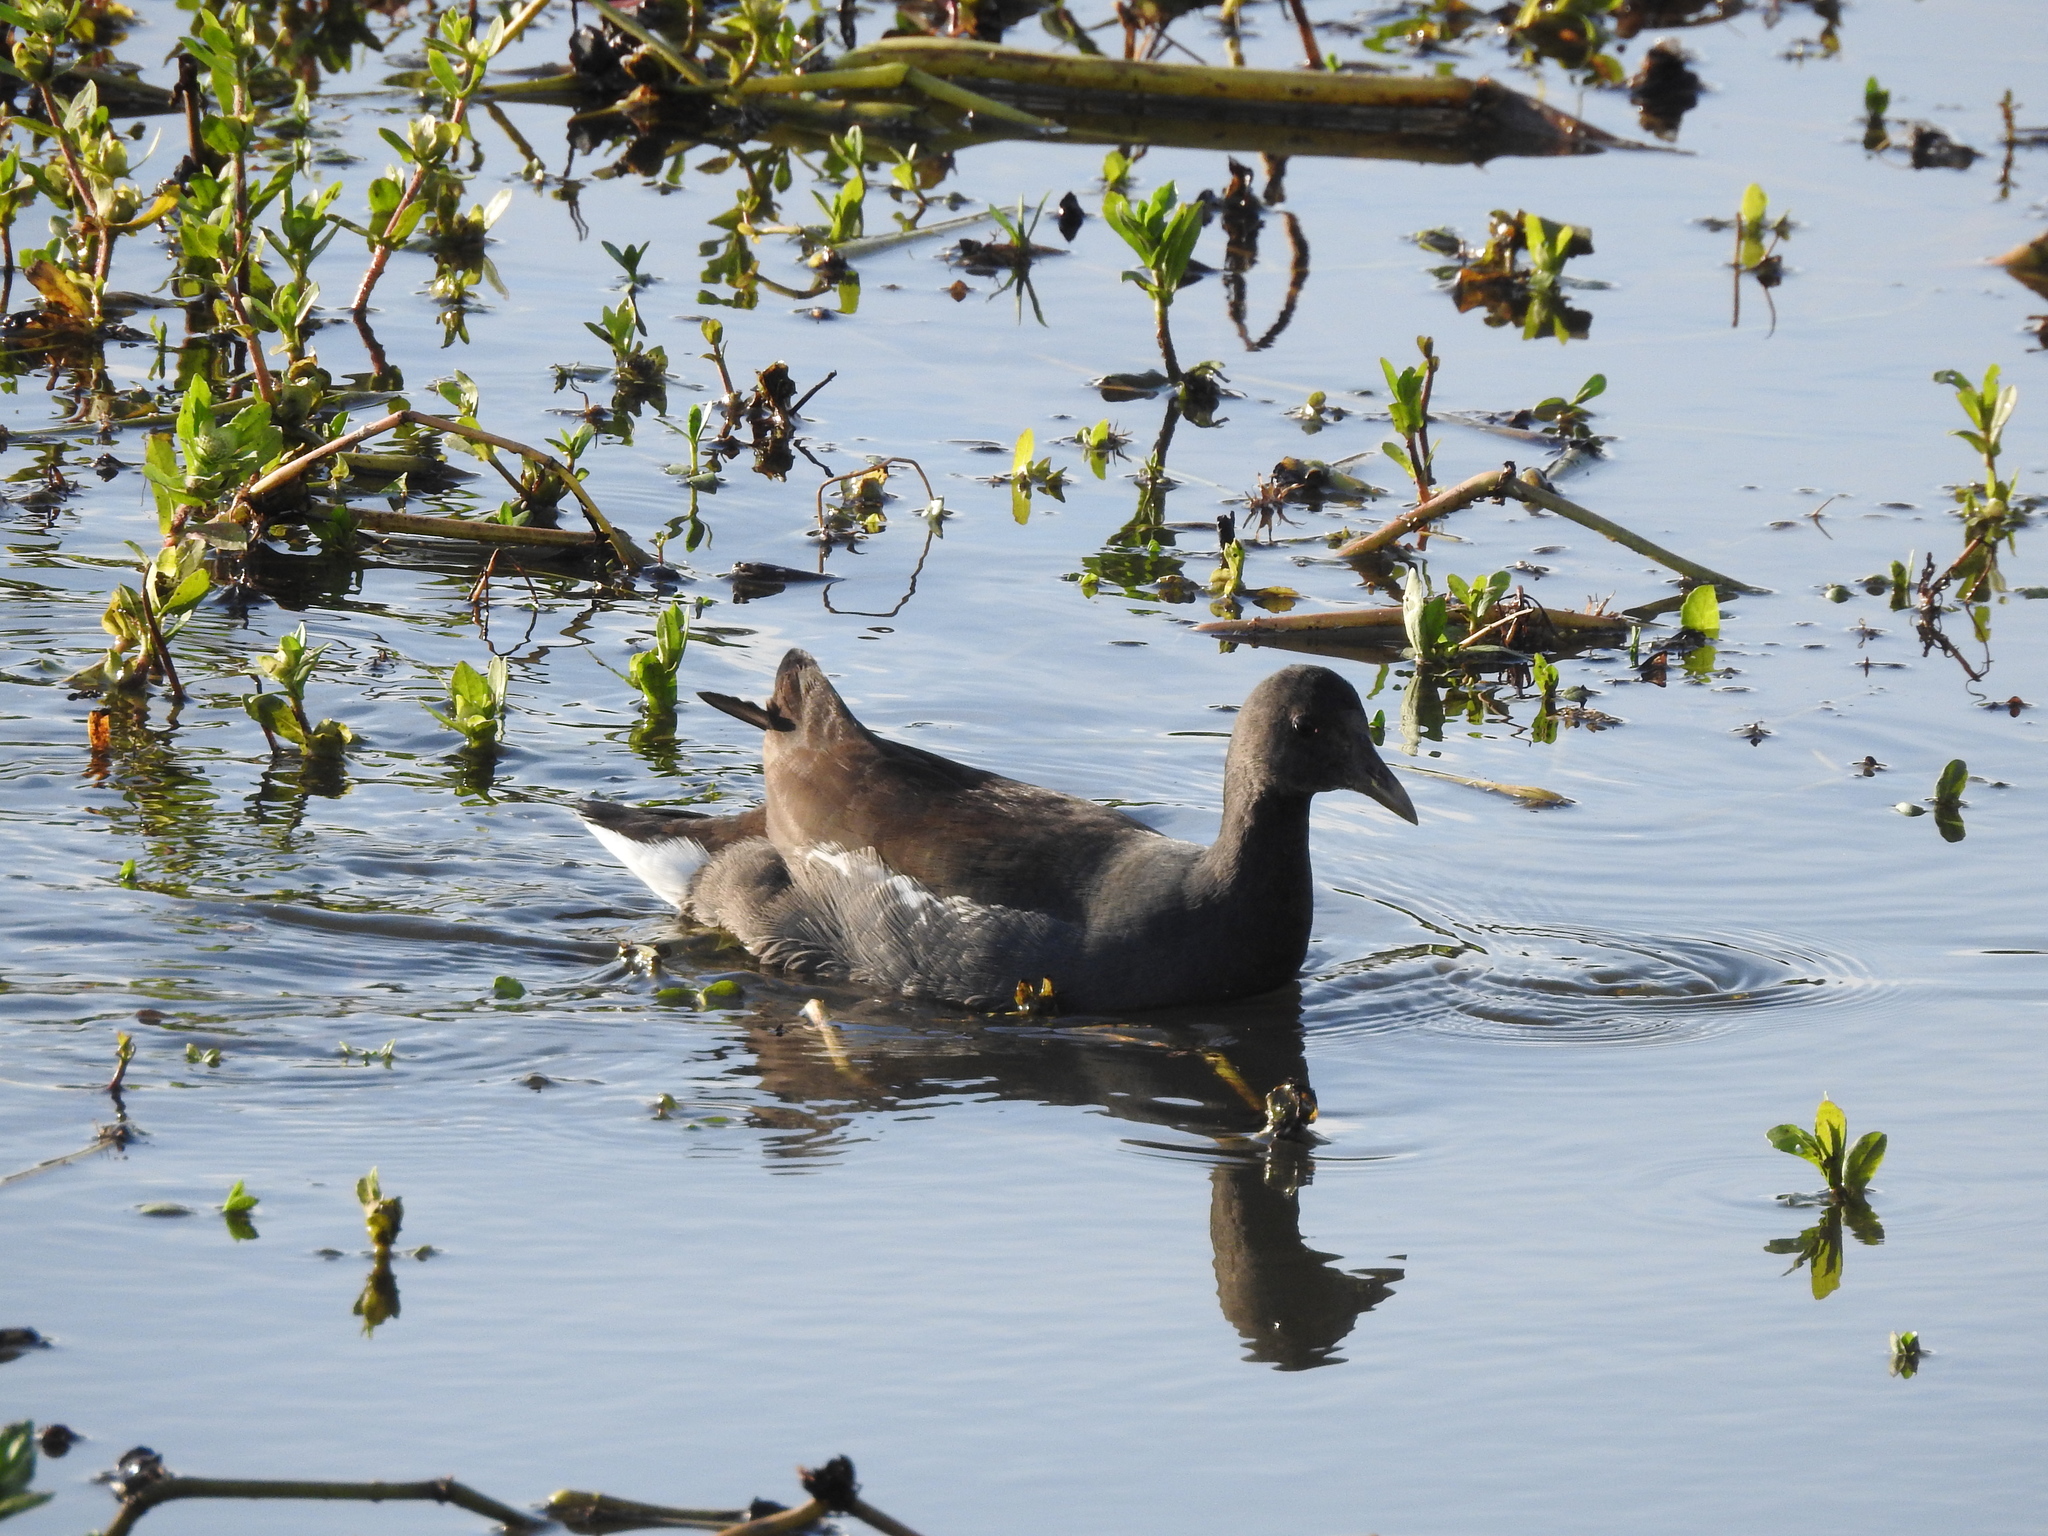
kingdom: Animalia
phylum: Chordata
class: Aves
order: Gruiformes
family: Rallidae
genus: Gallinula
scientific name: Gallinula chloropus
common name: Common moorhen
